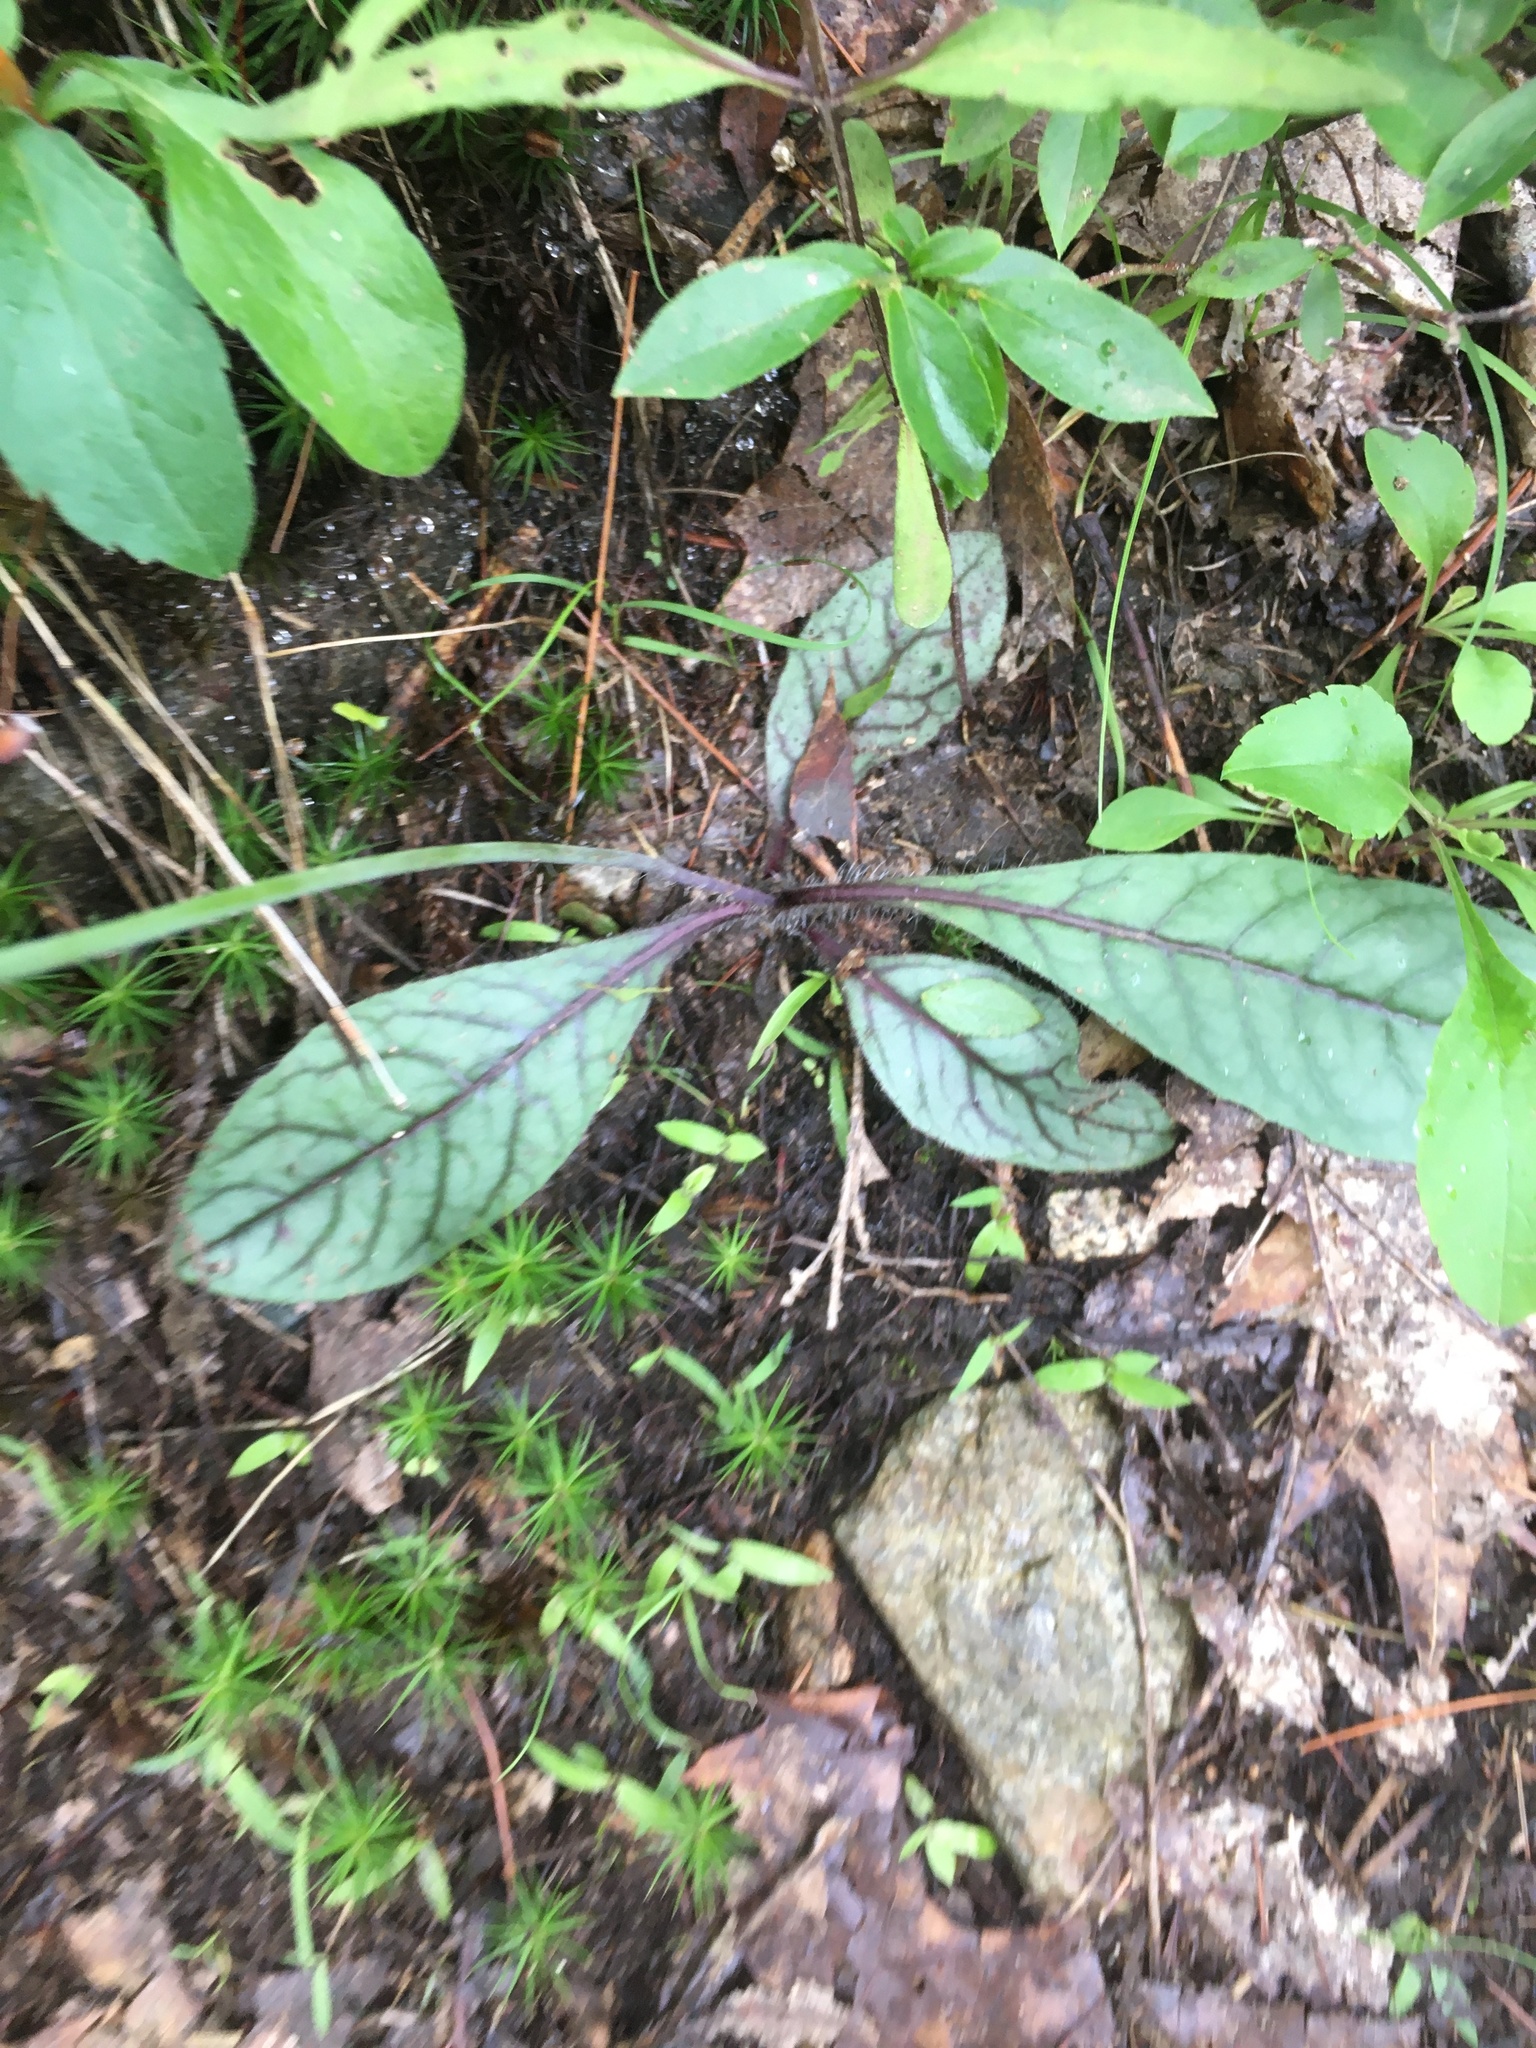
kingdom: Plantae
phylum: Tracheophyta
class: Magnoliopsida
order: Asterales
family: Asteraceae
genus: Hieracium
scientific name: Hieracium venosum
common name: Rattlesnake hawkweed
